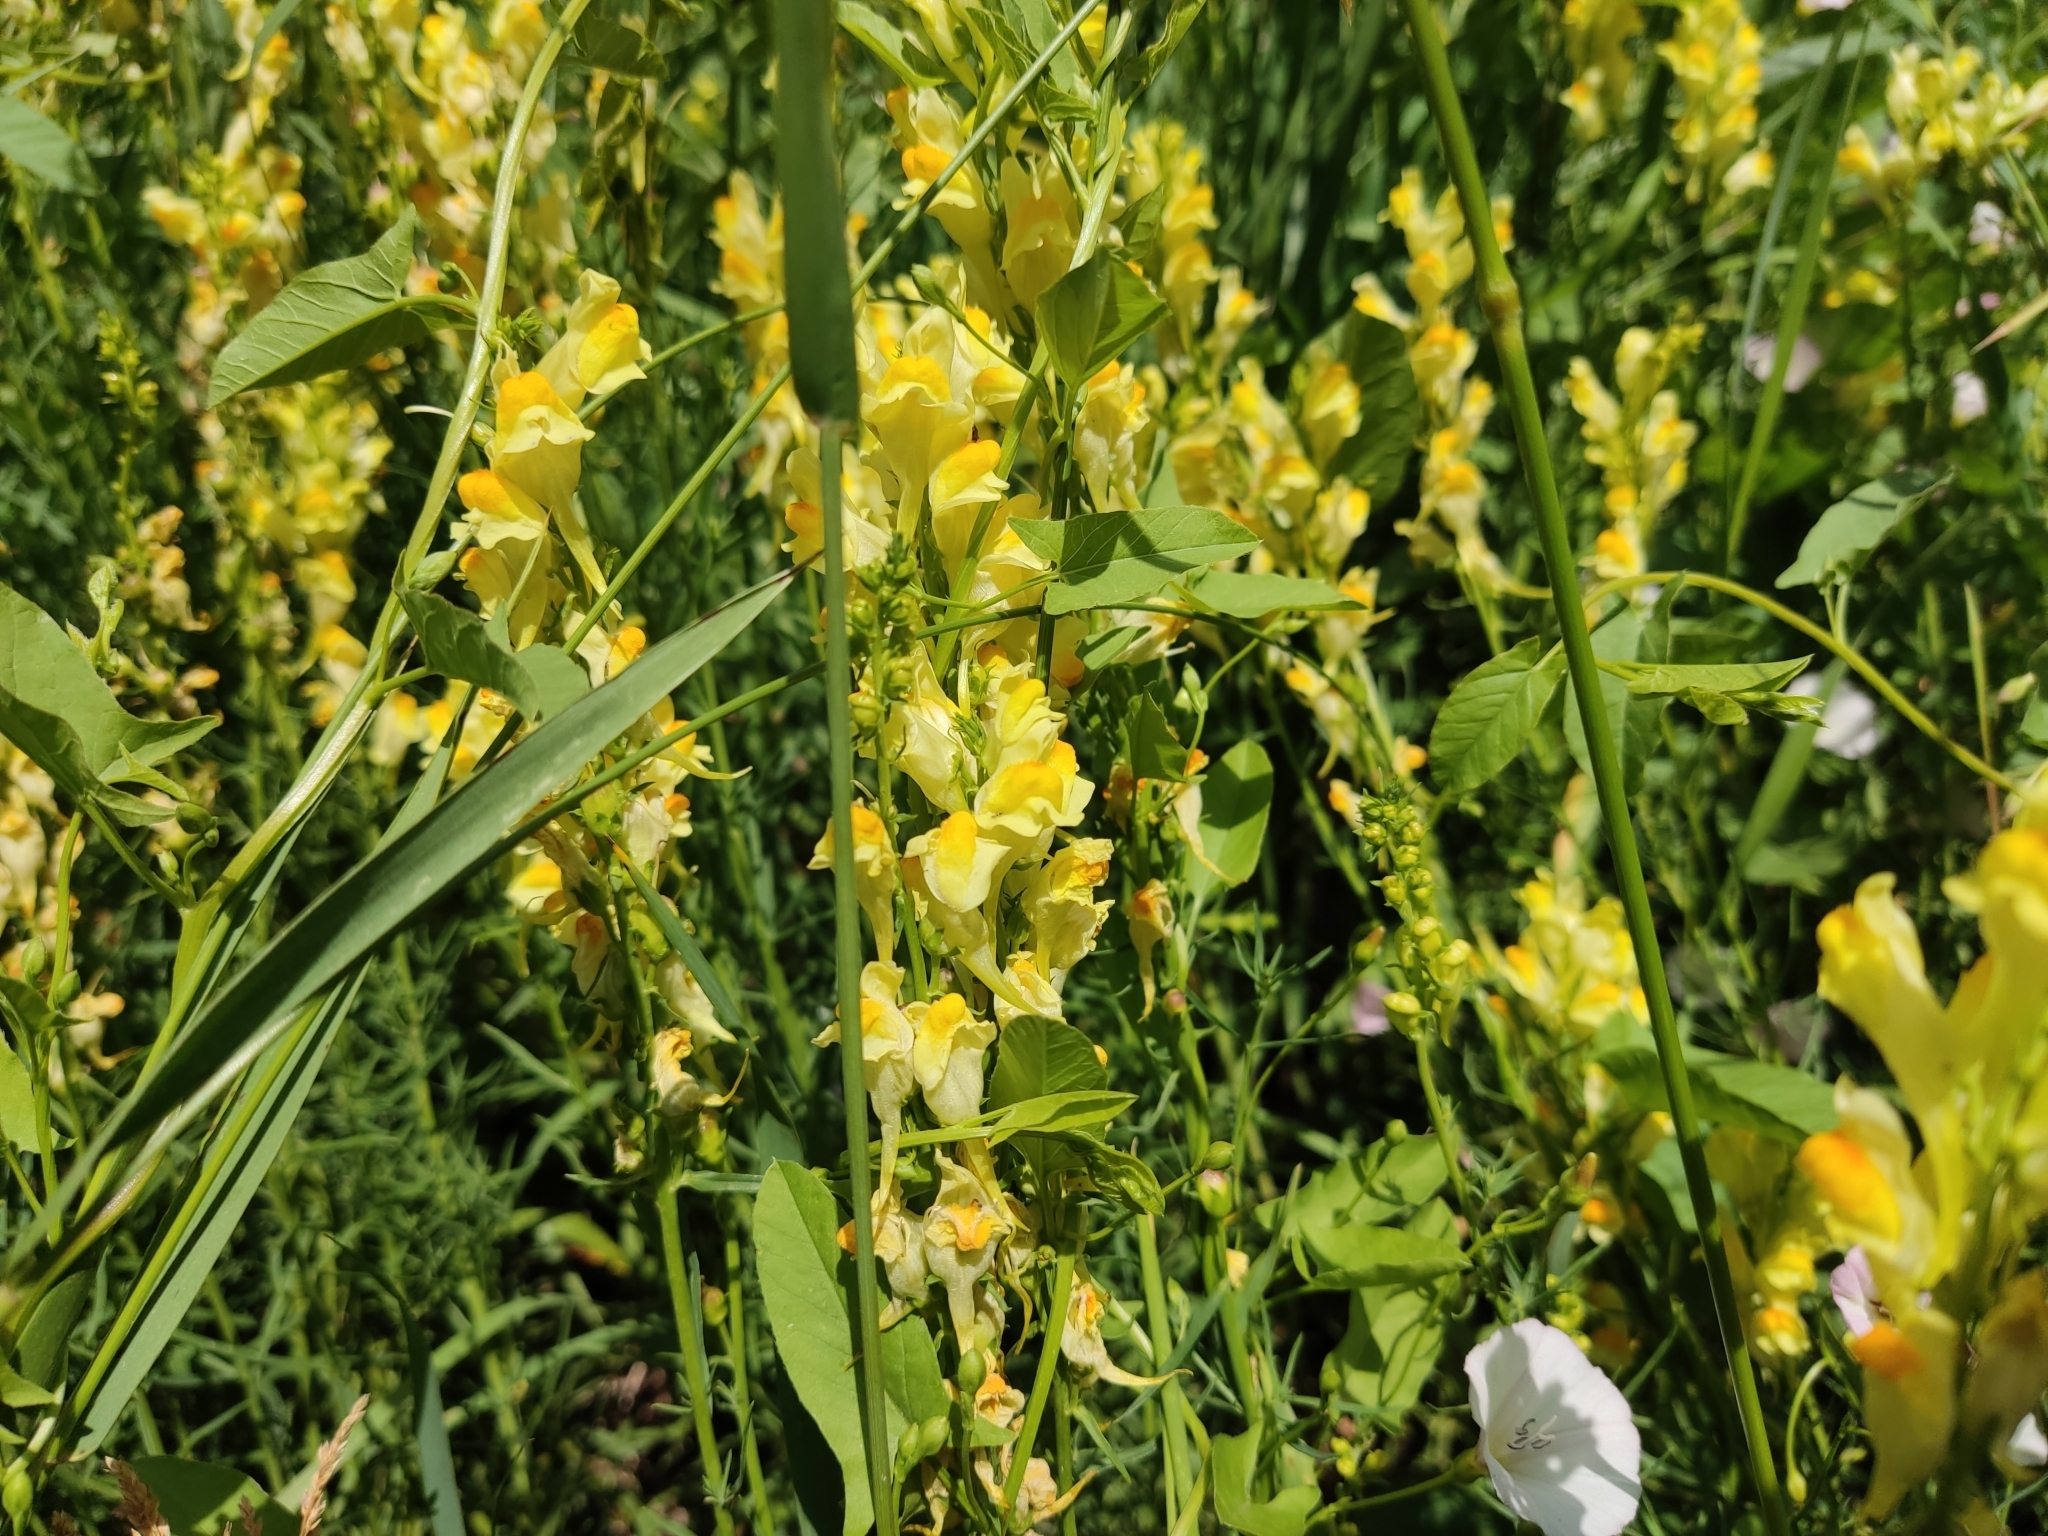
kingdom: Plantae
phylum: Tracheophyta
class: Magnoliopsida
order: Lamiales
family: Plantaginaceae
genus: Linaria
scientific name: Linaria vulgaris
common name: Butter and eggs
